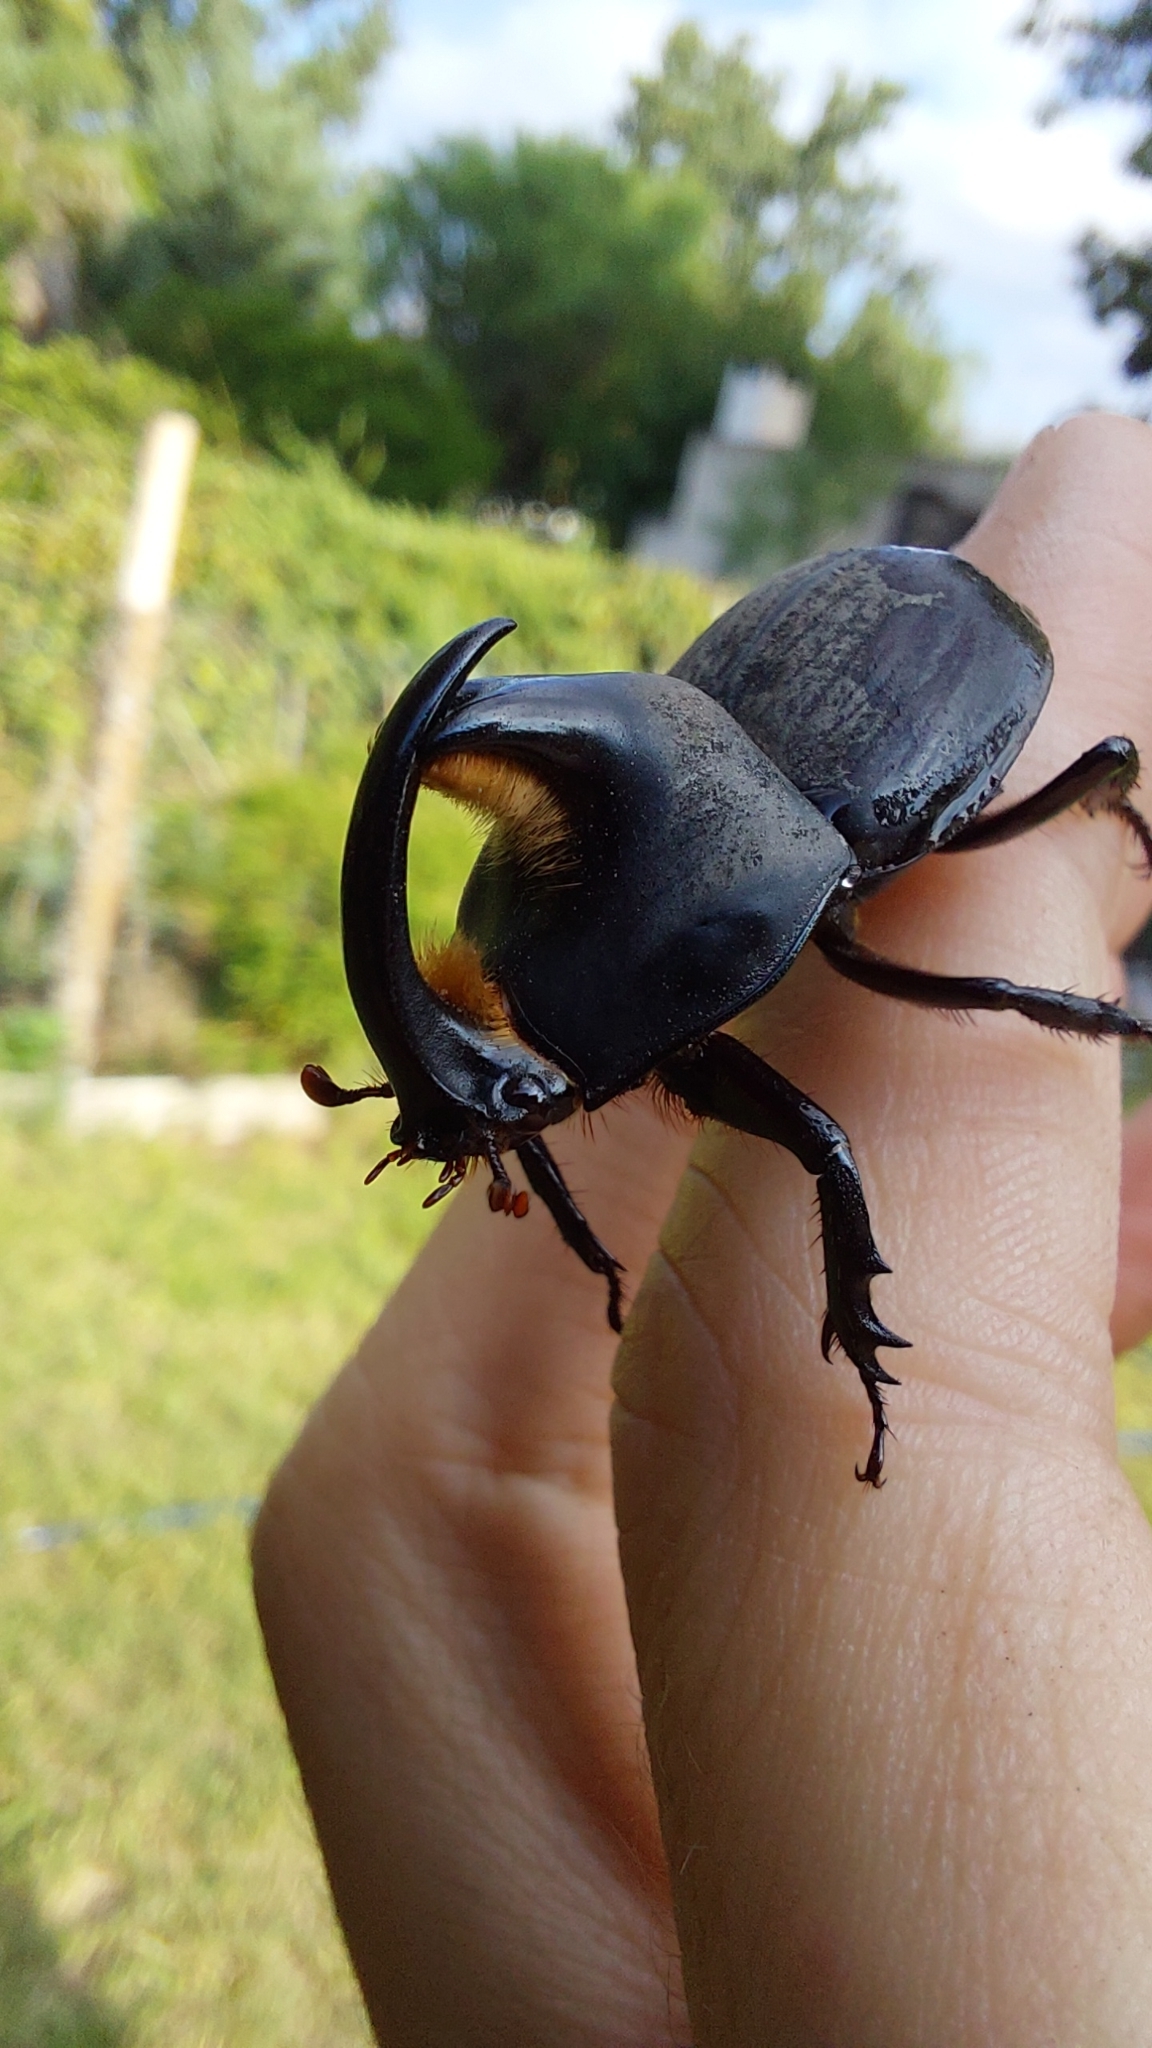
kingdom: Animalia
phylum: Arthropoda
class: Insecta
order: Coleoptera
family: Scarabaeidae
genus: Diloboderus
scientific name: Diloboderus abderus
